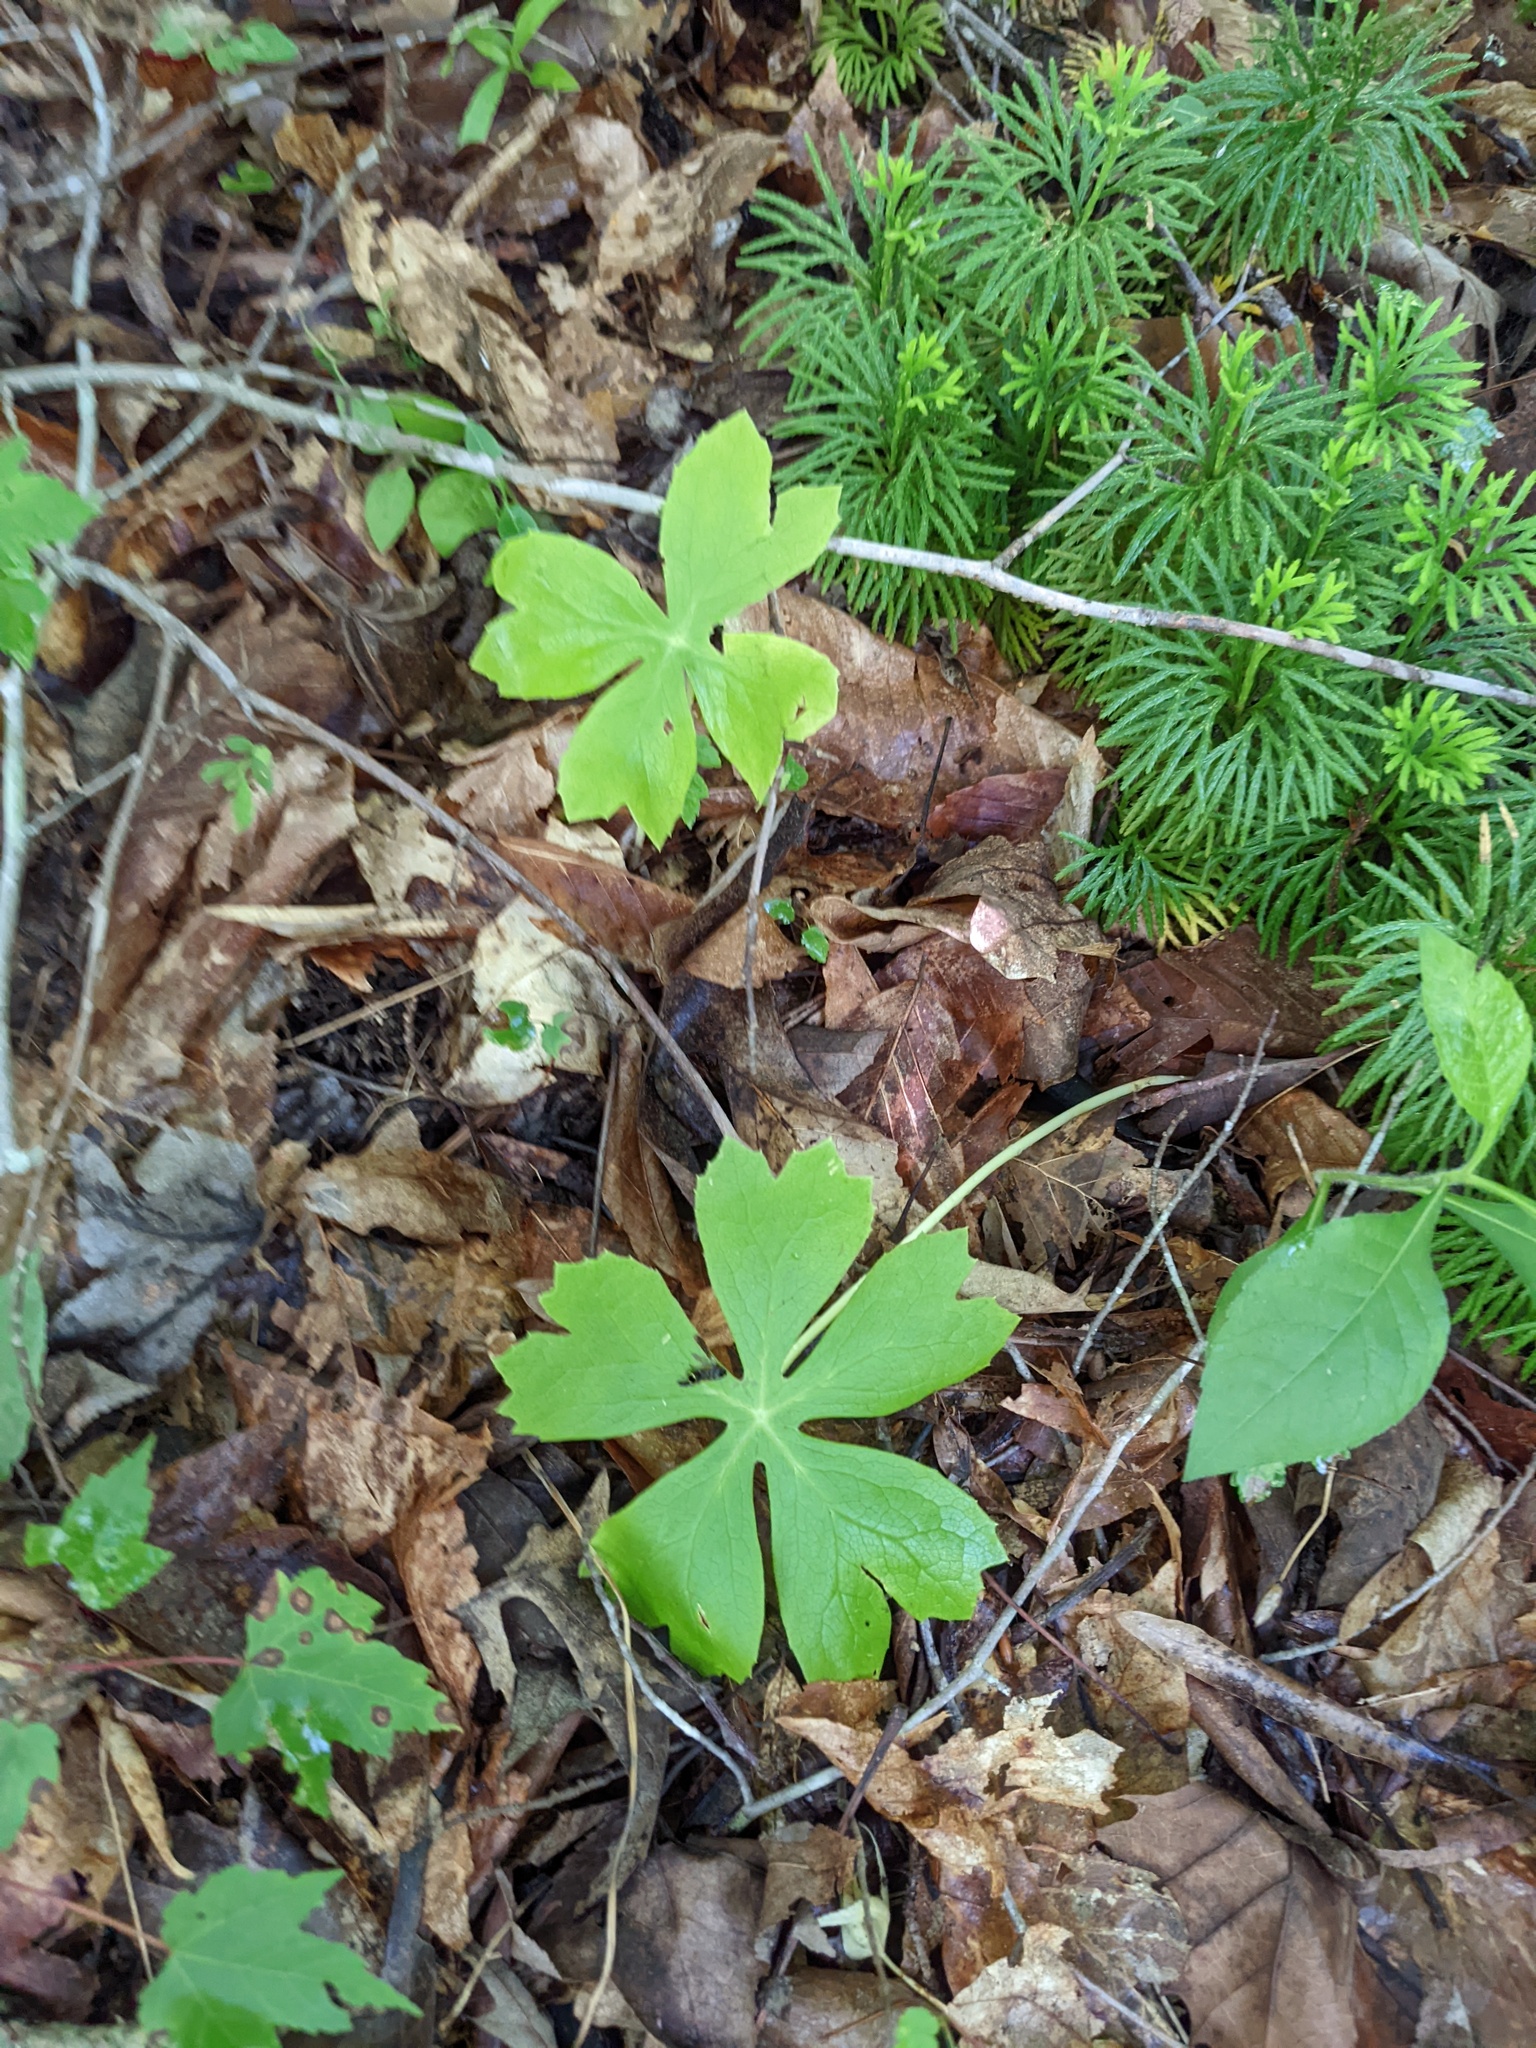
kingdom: Plantae
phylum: Tracheophyta
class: Magnoliopsida
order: Ranunculales
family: Berberidaceae
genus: Podophyllum
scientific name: Podophyllum peltatum
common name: Wild mandrake
